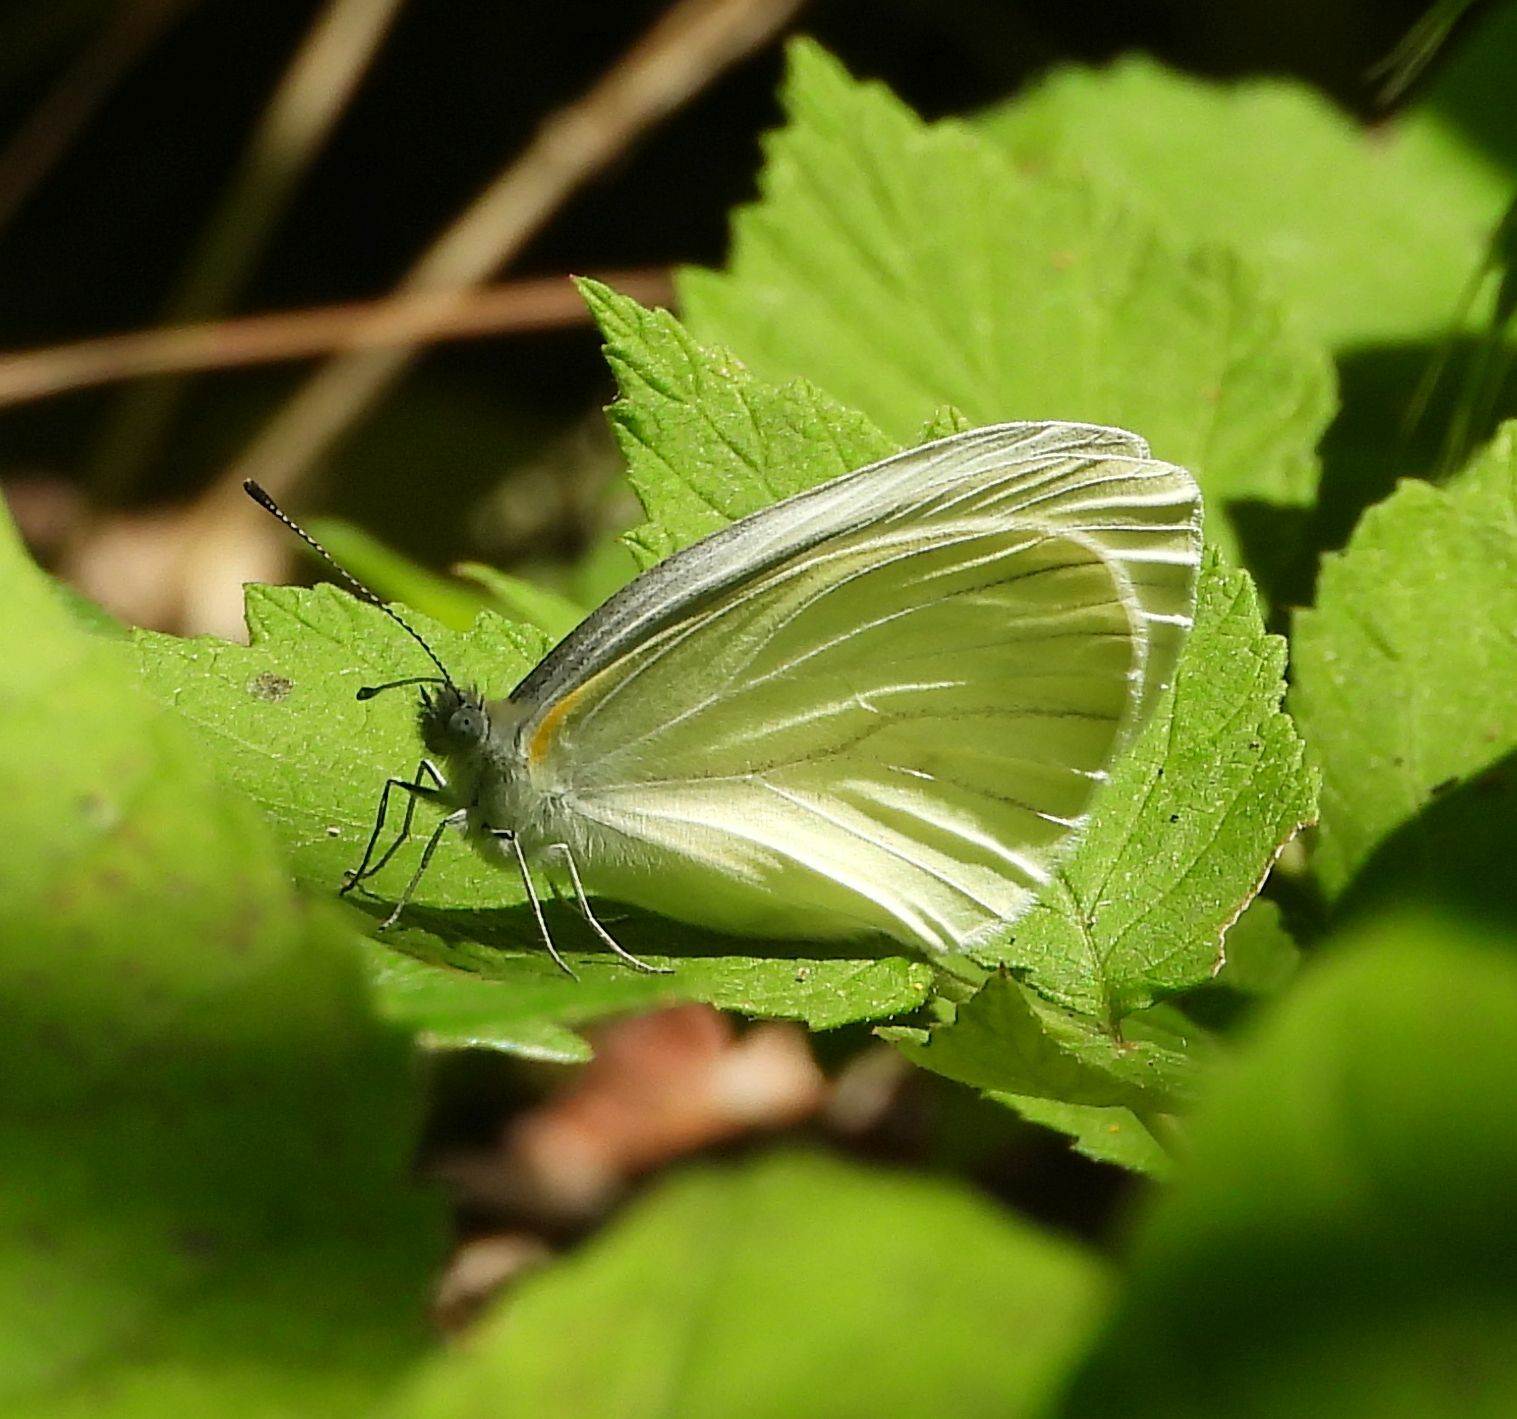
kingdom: Animalia
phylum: Arthropoda
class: Insecta
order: Lepidoptera
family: Pieridae
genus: Pieris
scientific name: Pieris oleracea
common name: Mustard white
